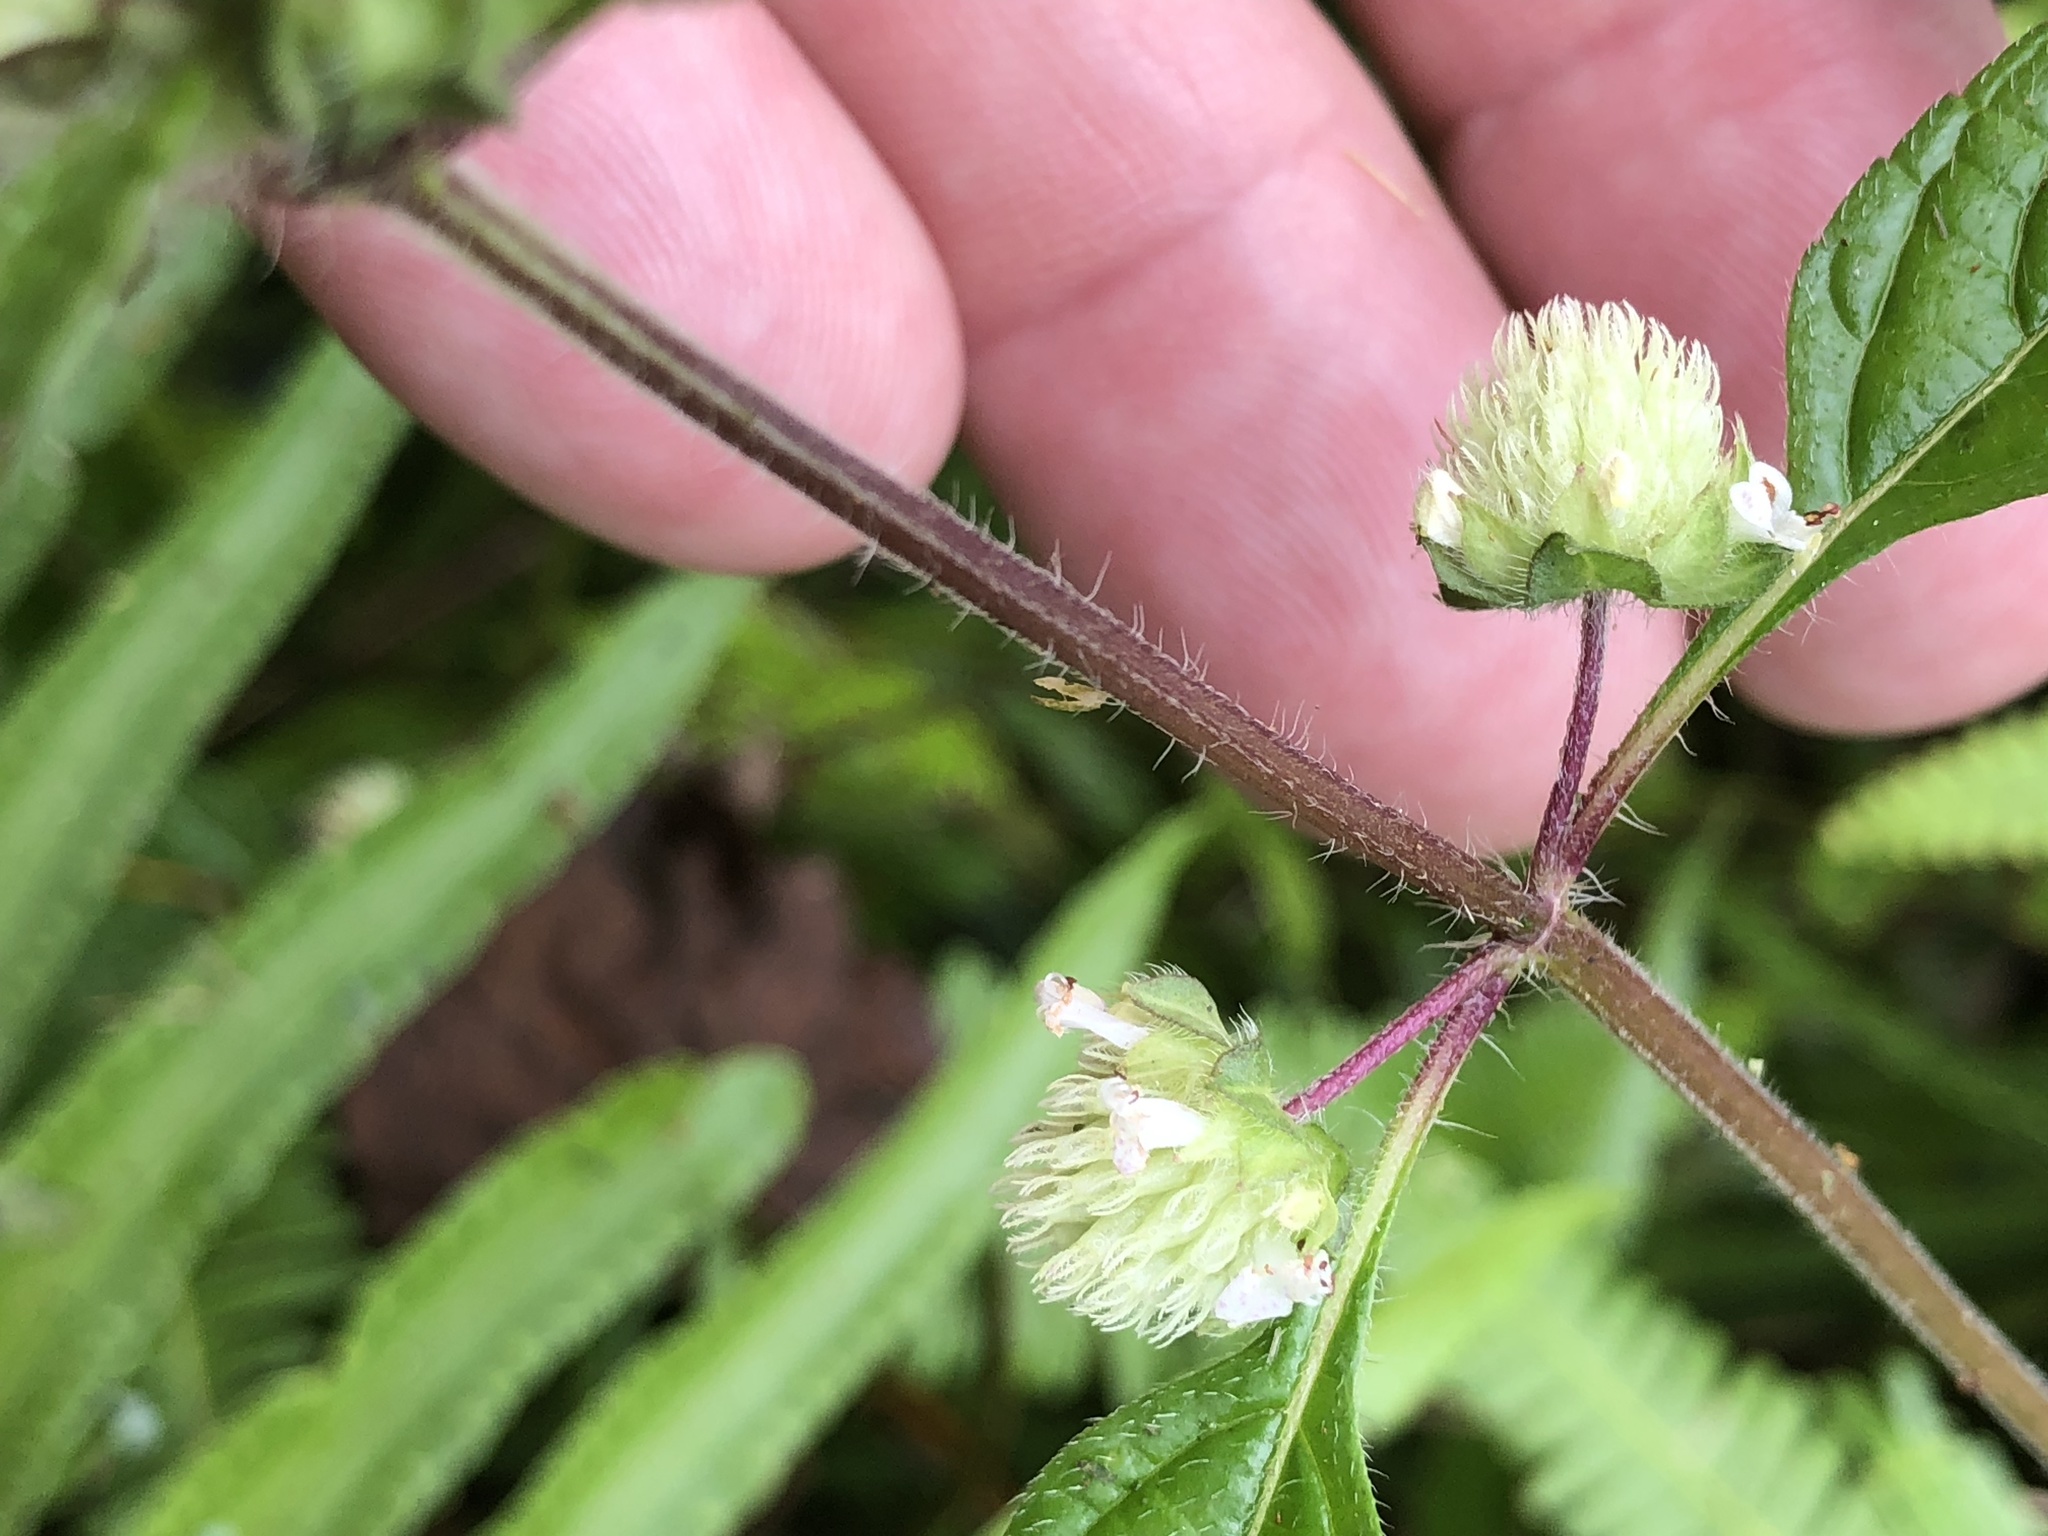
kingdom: Plantae
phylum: Tracheophyta
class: Magnoliopsida
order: Lamiales
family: Lamiaceae
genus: Hyptis
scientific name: Hyptis atrorubens
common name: Lanmant
